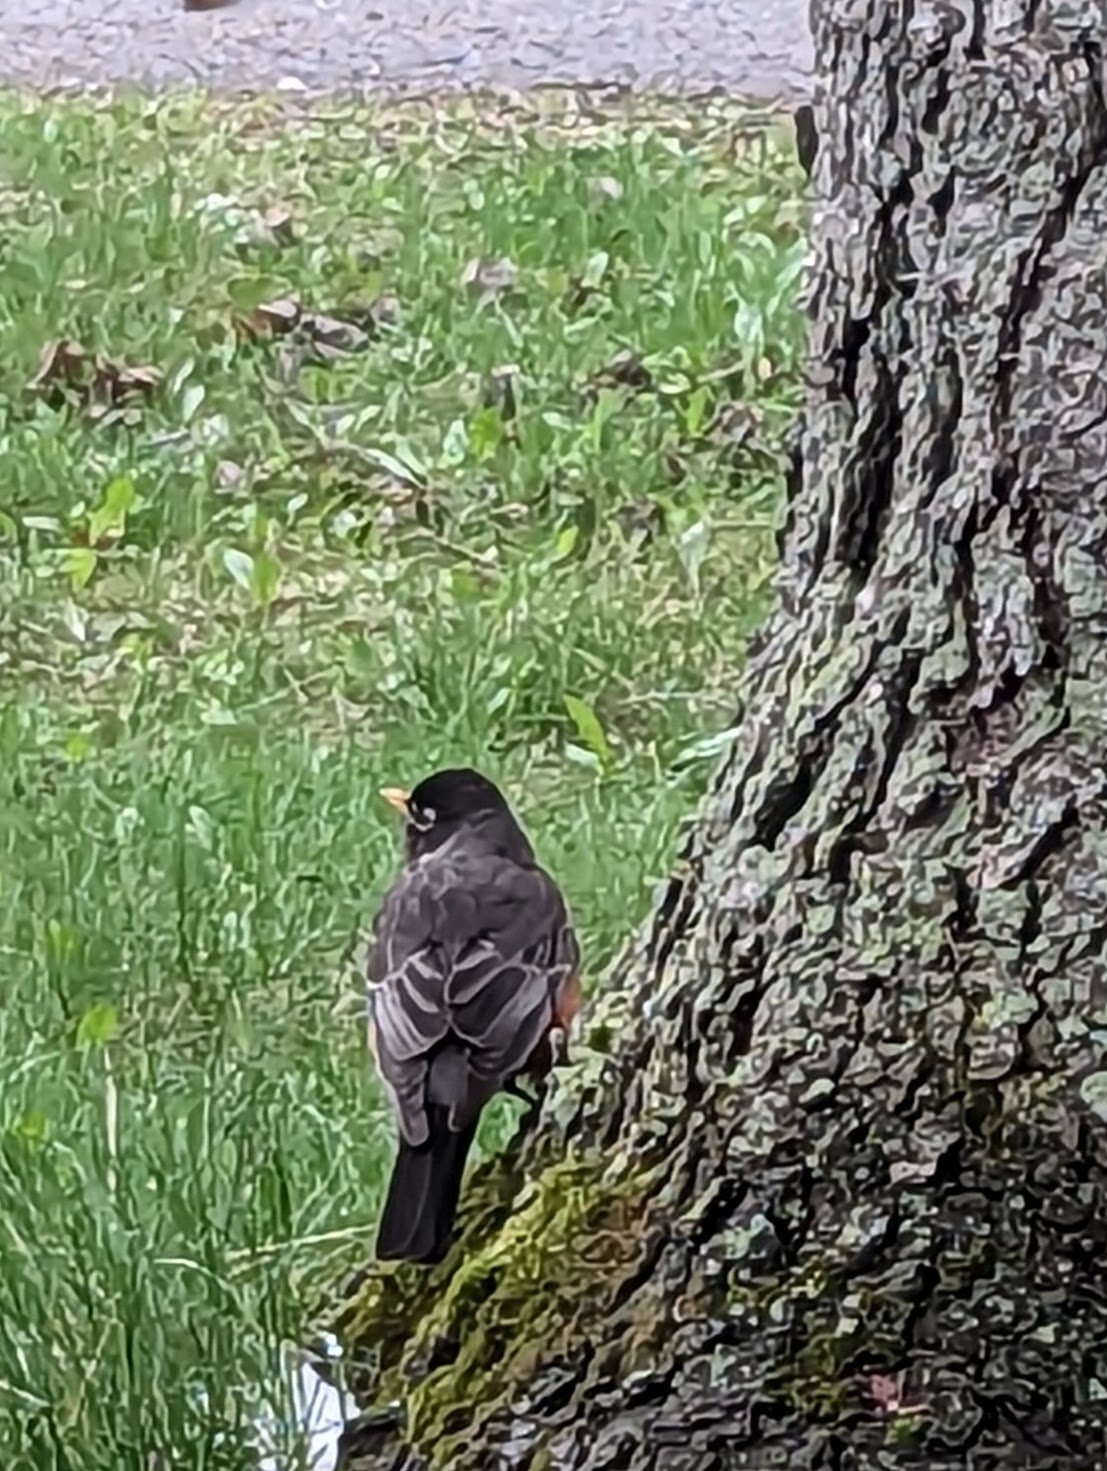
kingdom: Animalia
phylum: Chordata
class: Aves
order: Passeriformes
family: Turdidae
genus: Turdus
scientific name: Turdus migratorius
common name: American robin
